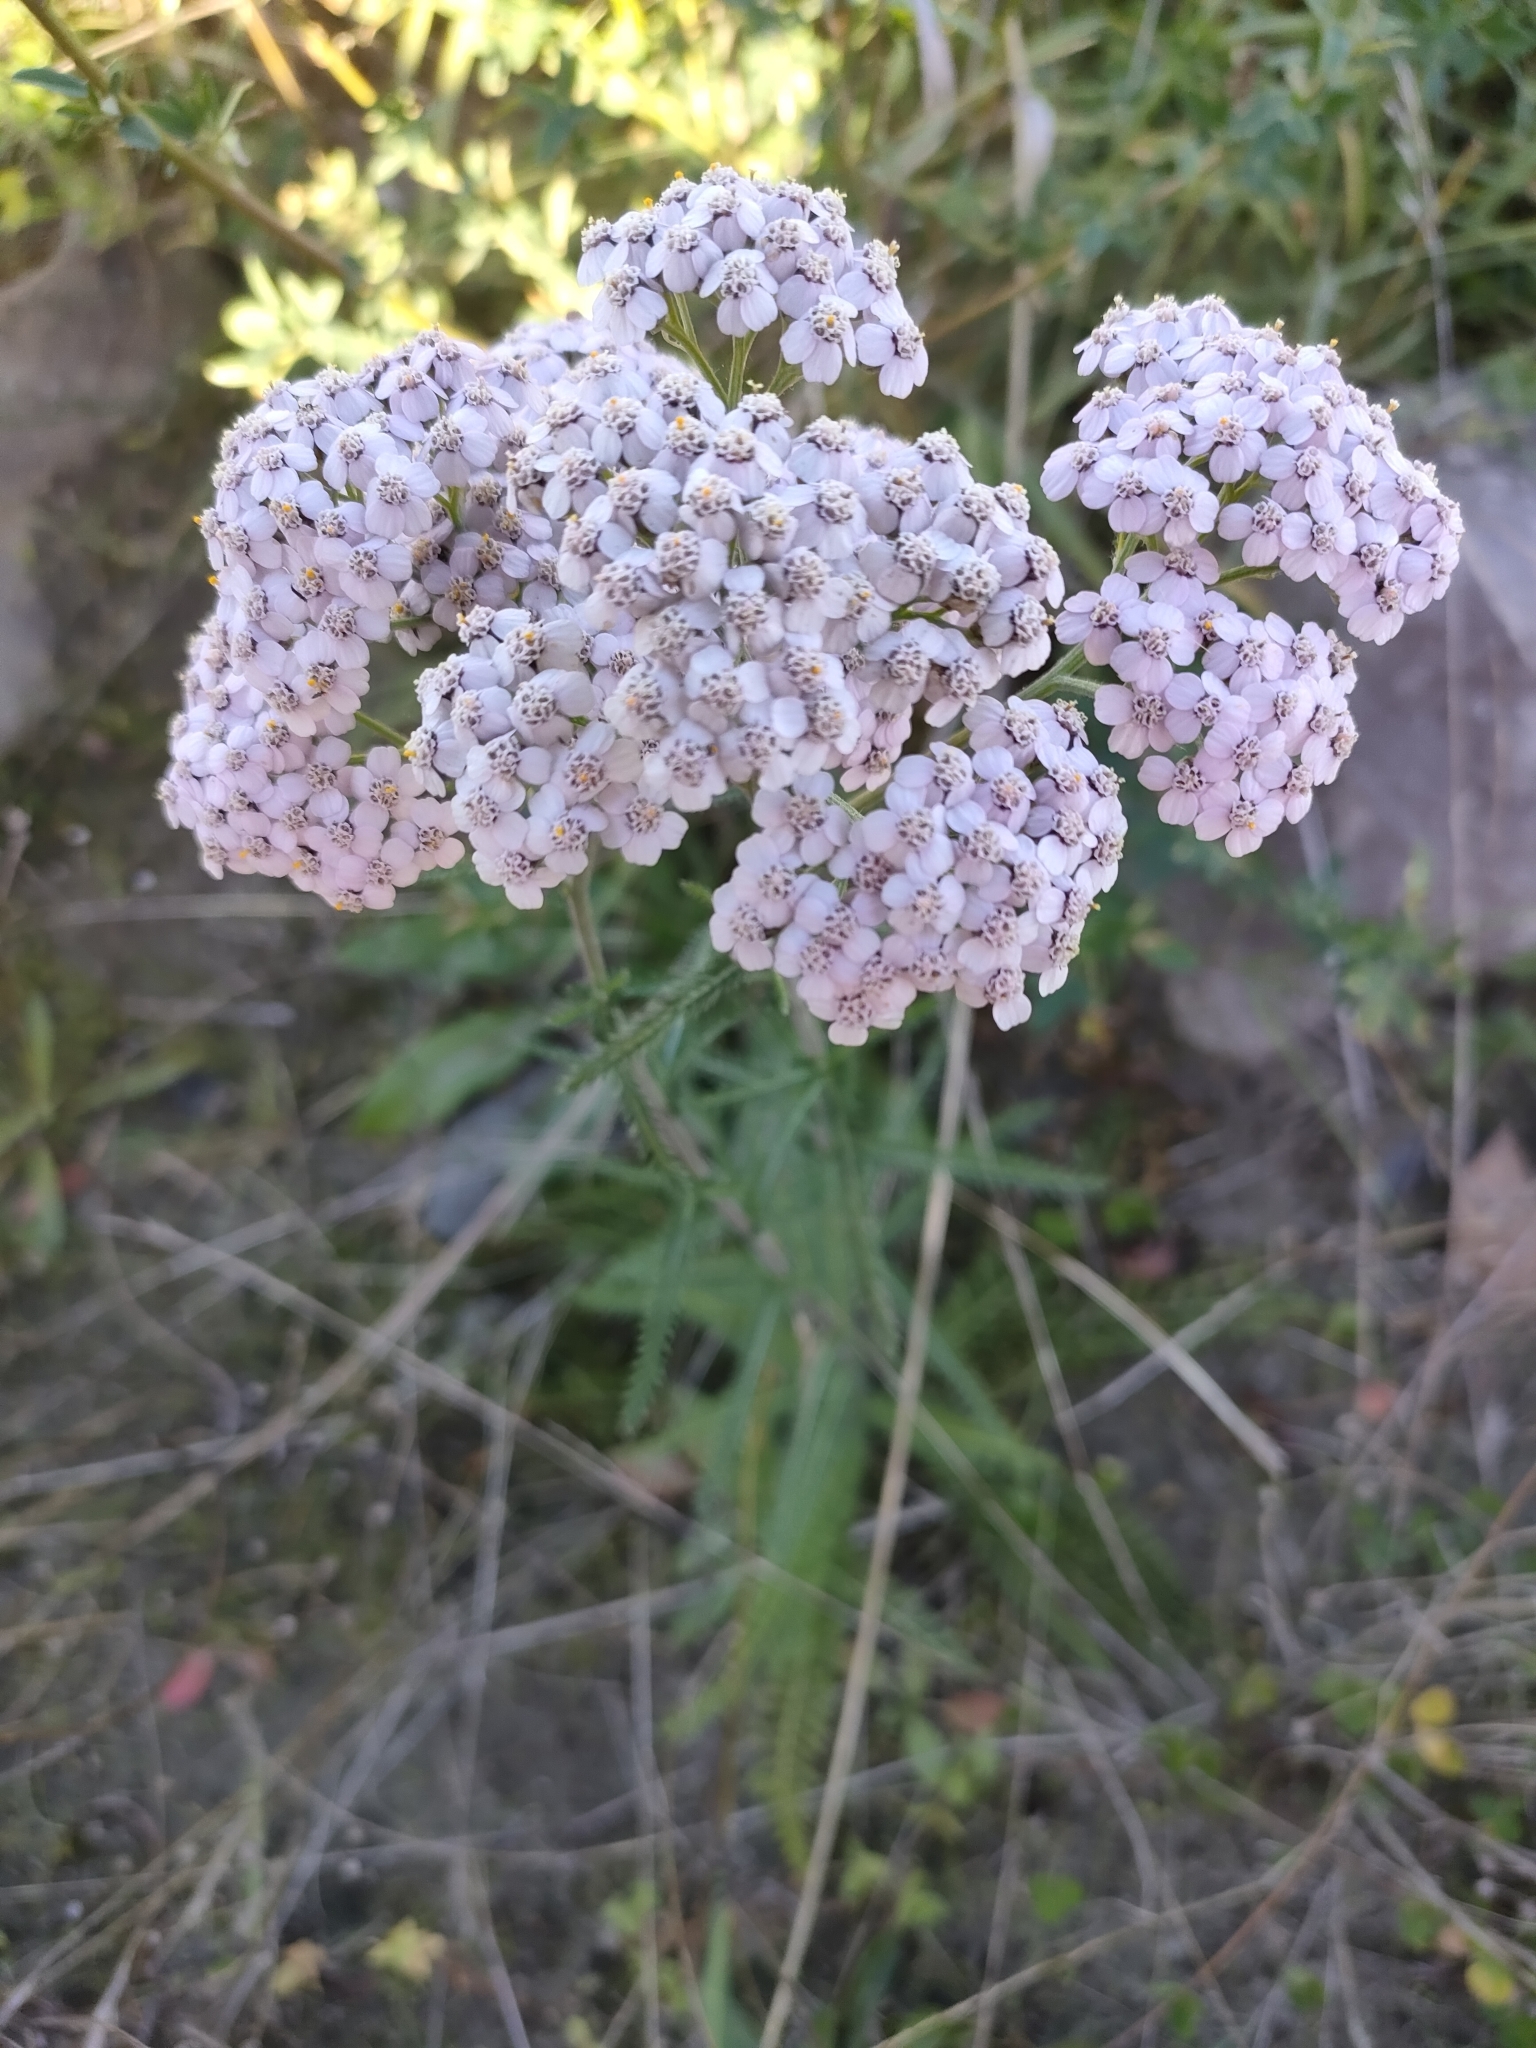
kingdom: Plantae
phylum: Tracheophyta
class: Magnoliopsida
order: Asterales
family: Asteraceae
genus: Achillea
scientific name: Achillea millefolium
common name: Yarrow
